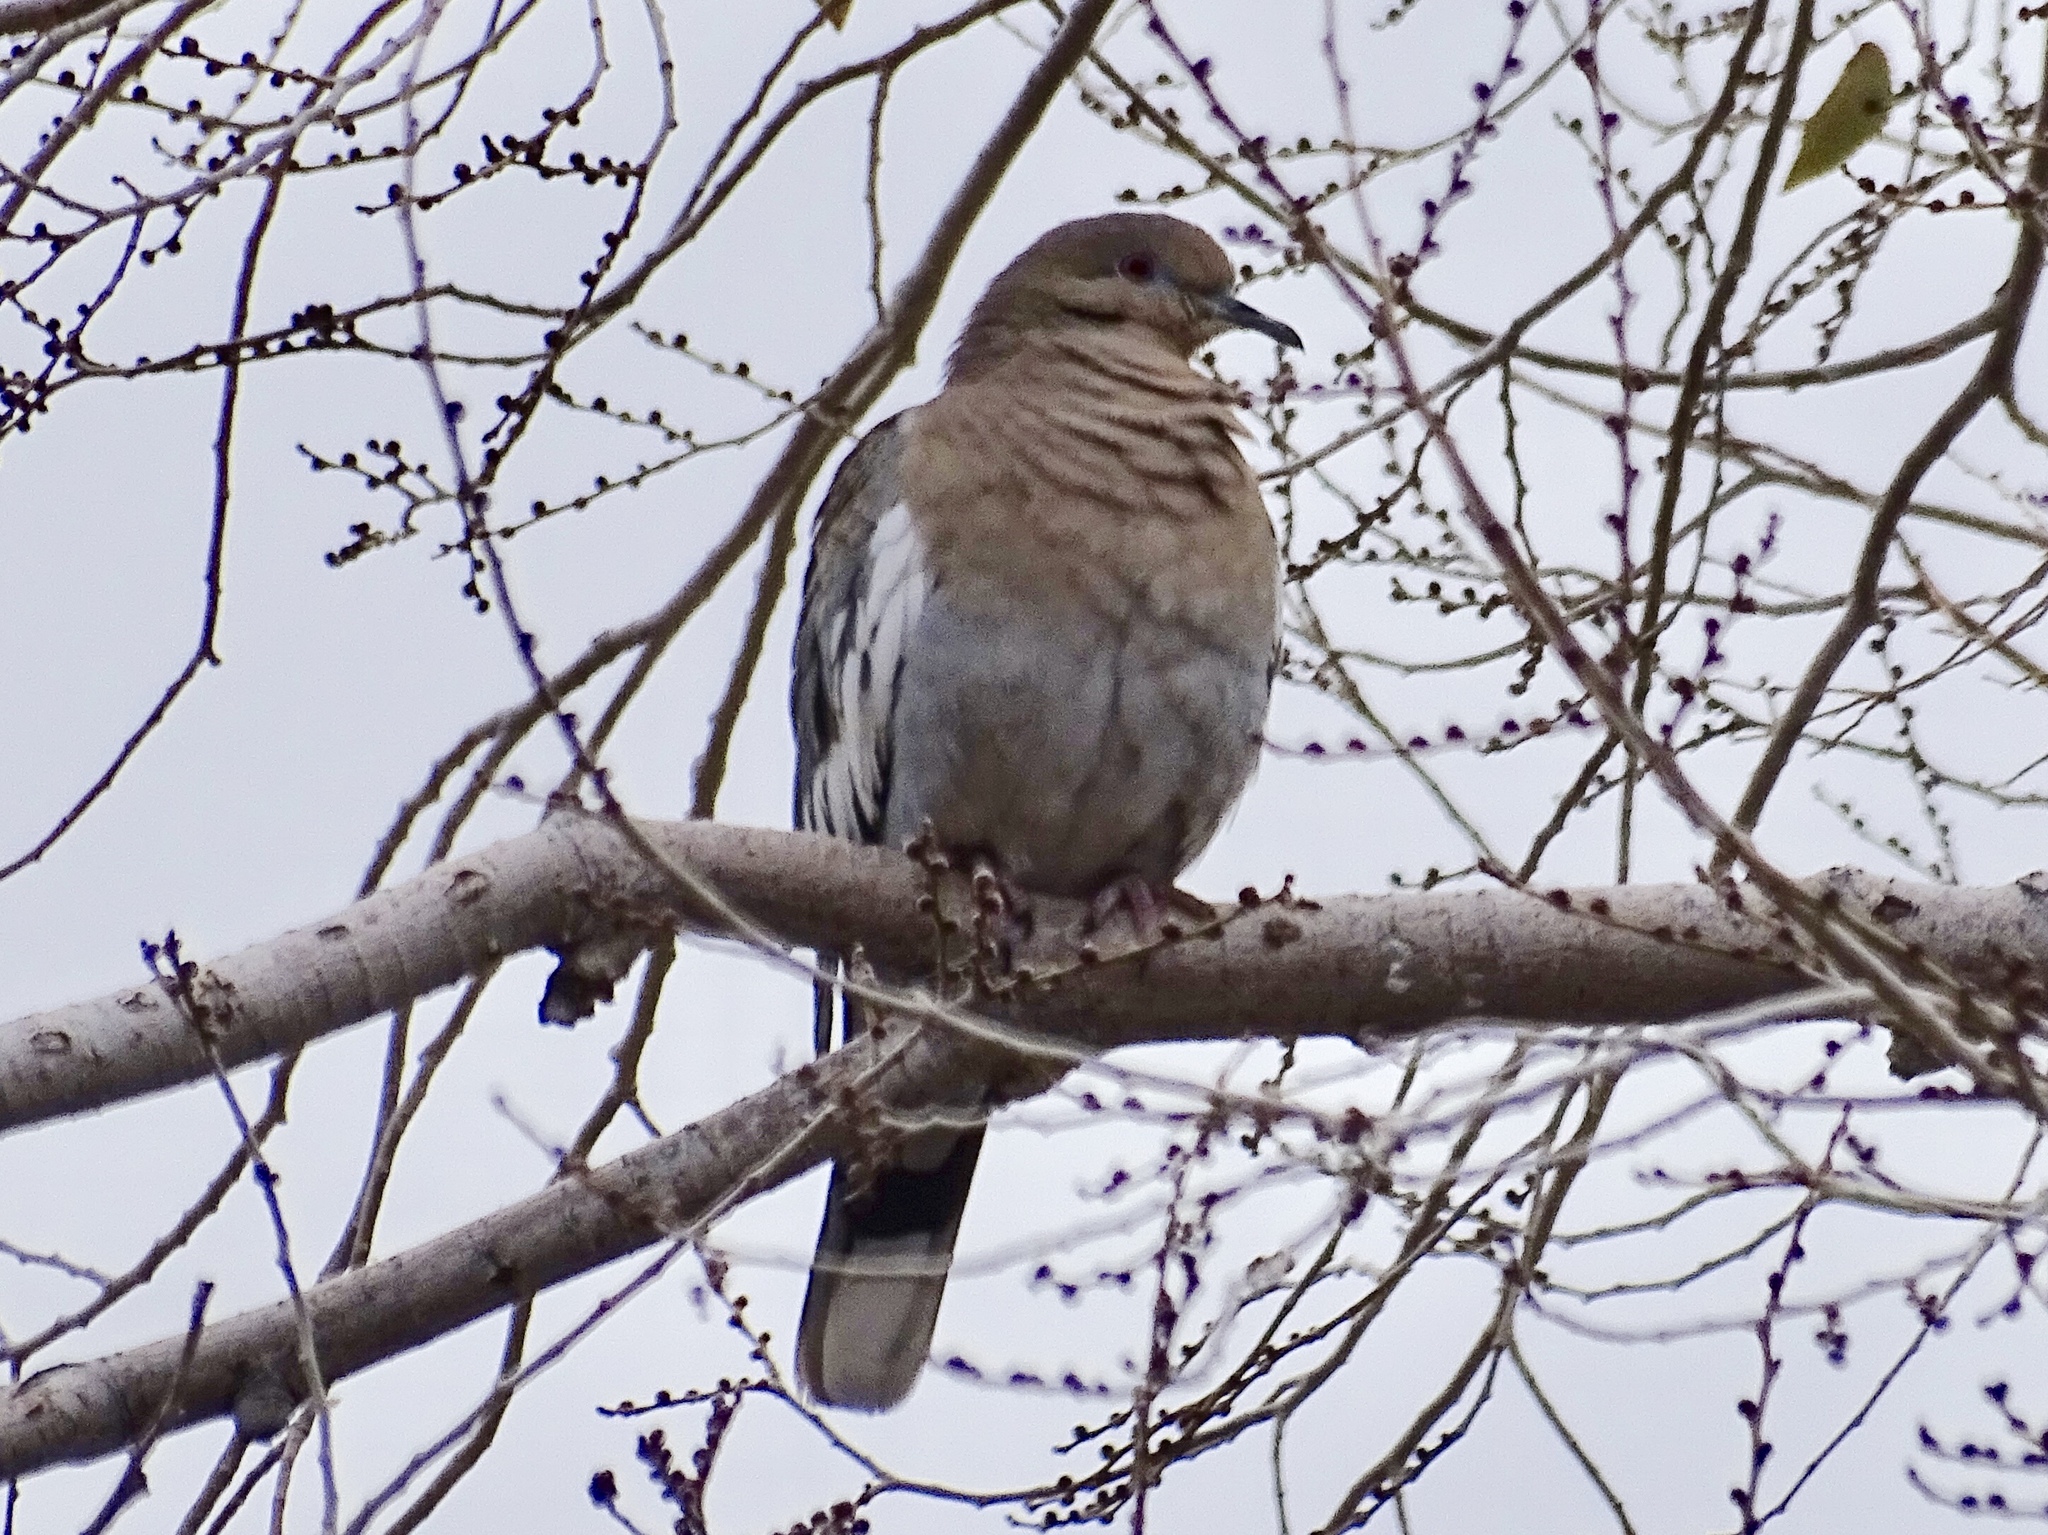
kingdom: Animalia
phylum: Chordata
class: Aves
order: Columbiformes
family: Columbidae
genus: Zenaida
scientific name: Zenaida asiatica
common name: White-winged dove
